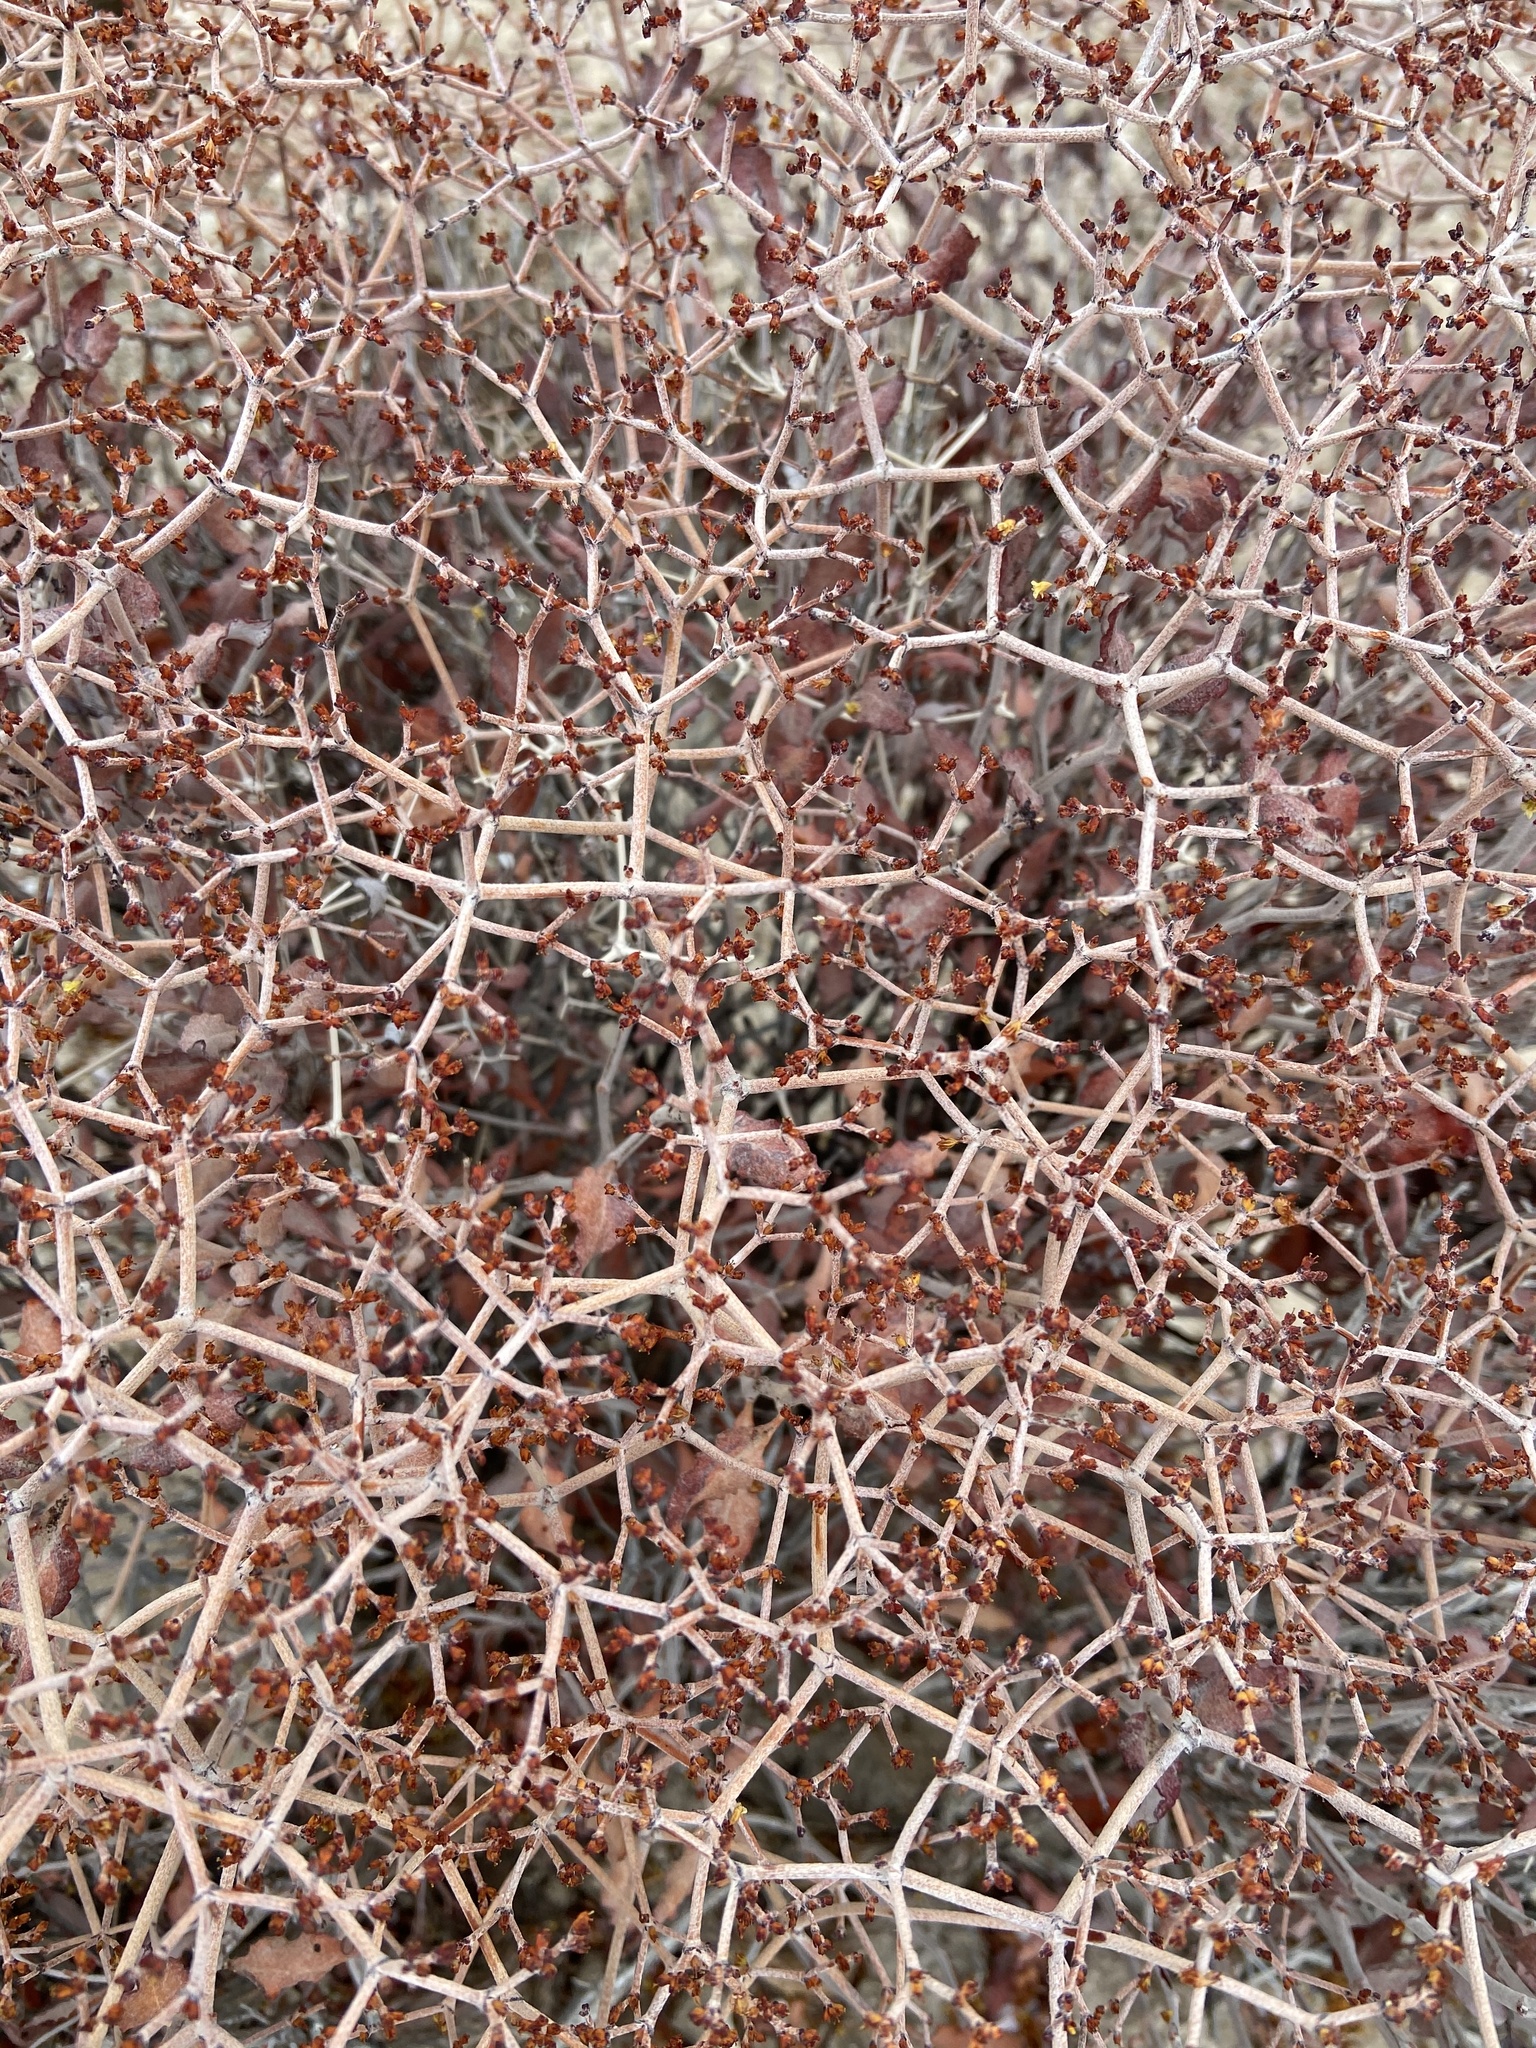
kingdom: Plantae
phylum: Tracheophyta
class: Magnoliopsida
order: Caryophyllales
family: Polygonaceae
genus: Eriogonum
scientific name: Eriogonum corymbosum
